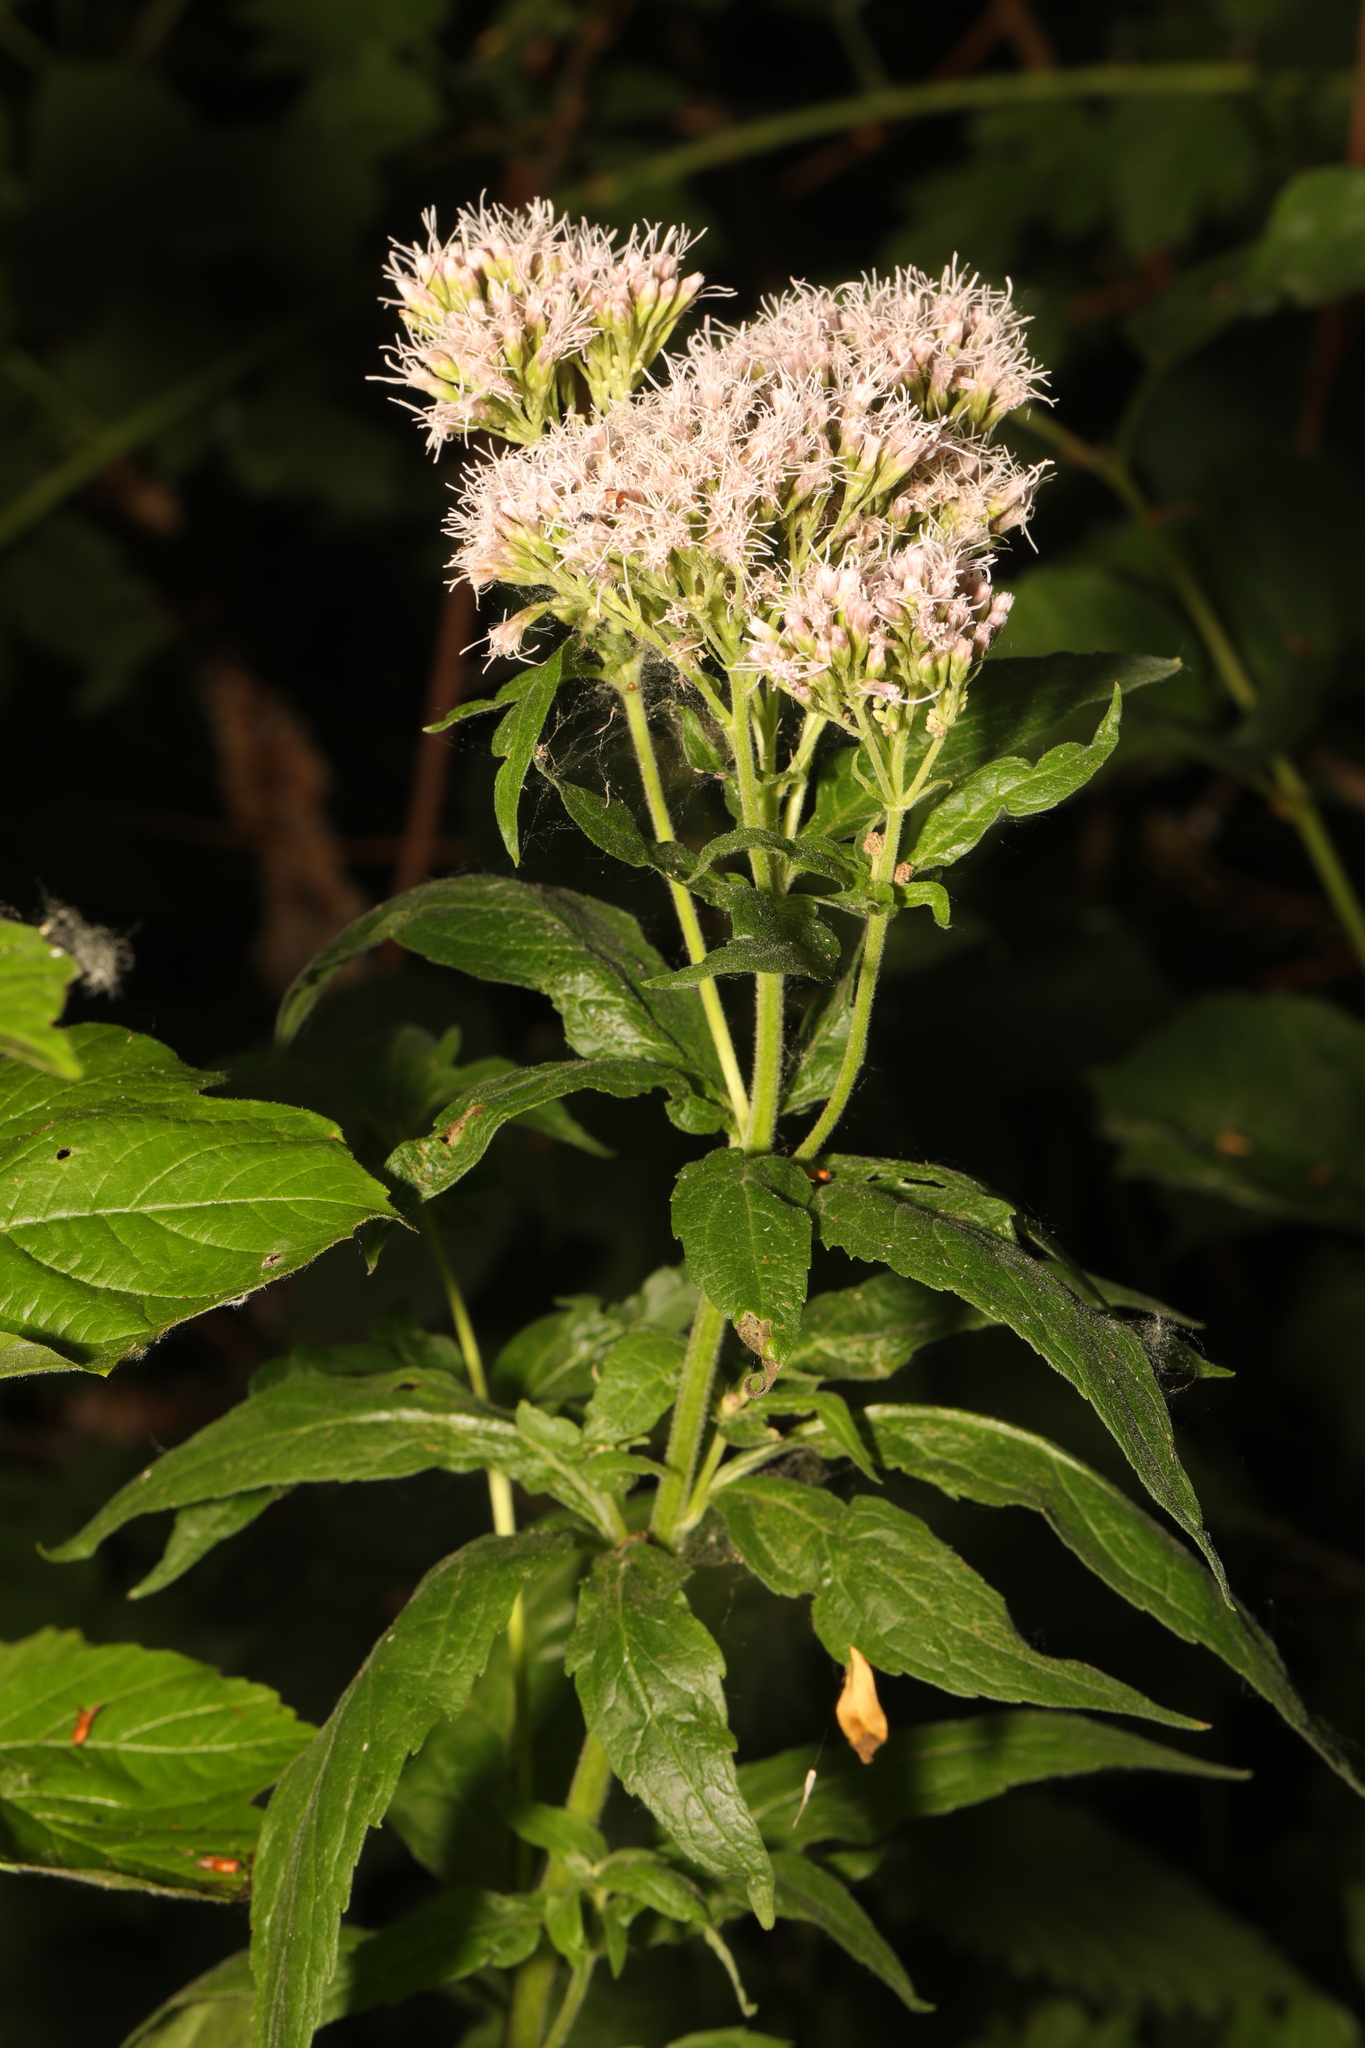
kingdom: Plantae
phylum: Tracheophyta
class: Magnoliopsida
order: Asterales
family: Asteraceae
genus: Eupatorium
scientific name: Eupatorium cannabinum
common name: Hemp-agrimony
